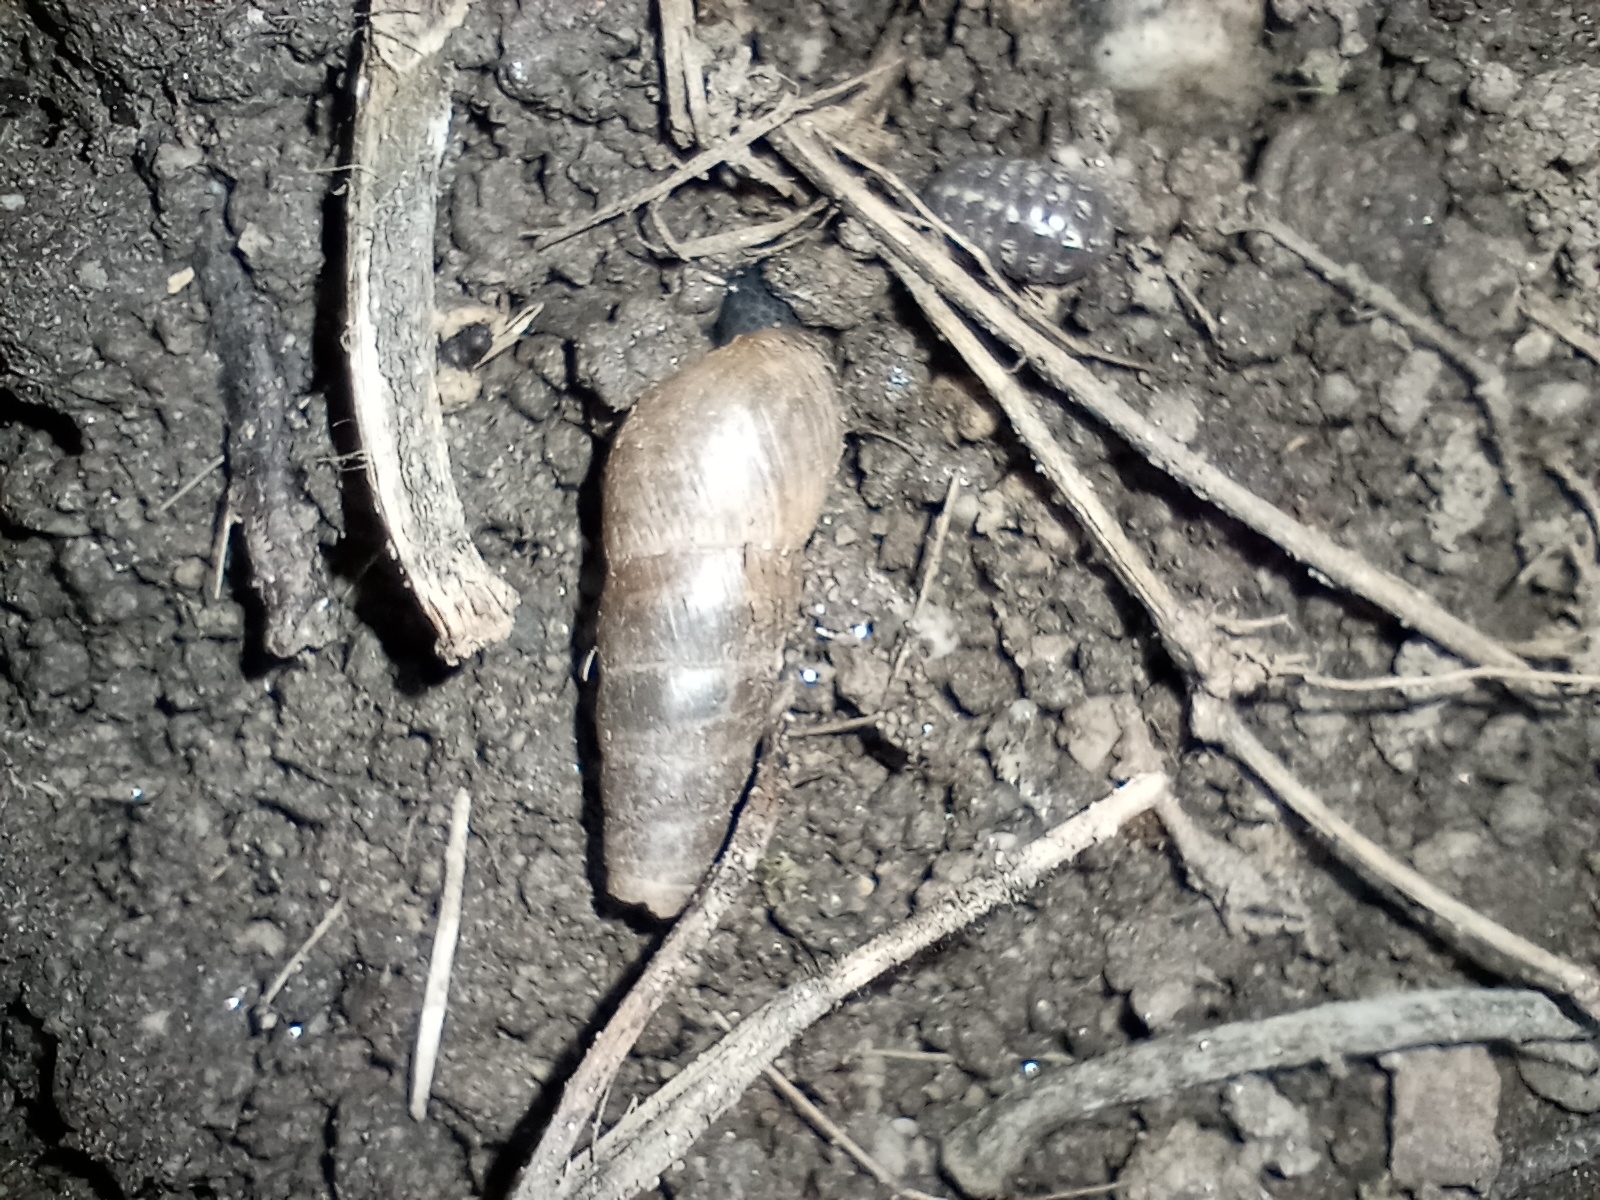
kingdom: Animalia
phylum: Mollusca
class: Gastropoda
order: Stylommatophora
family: Achatinidae
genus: Rumina
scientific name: Rumina decollata
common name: Decollate snail
